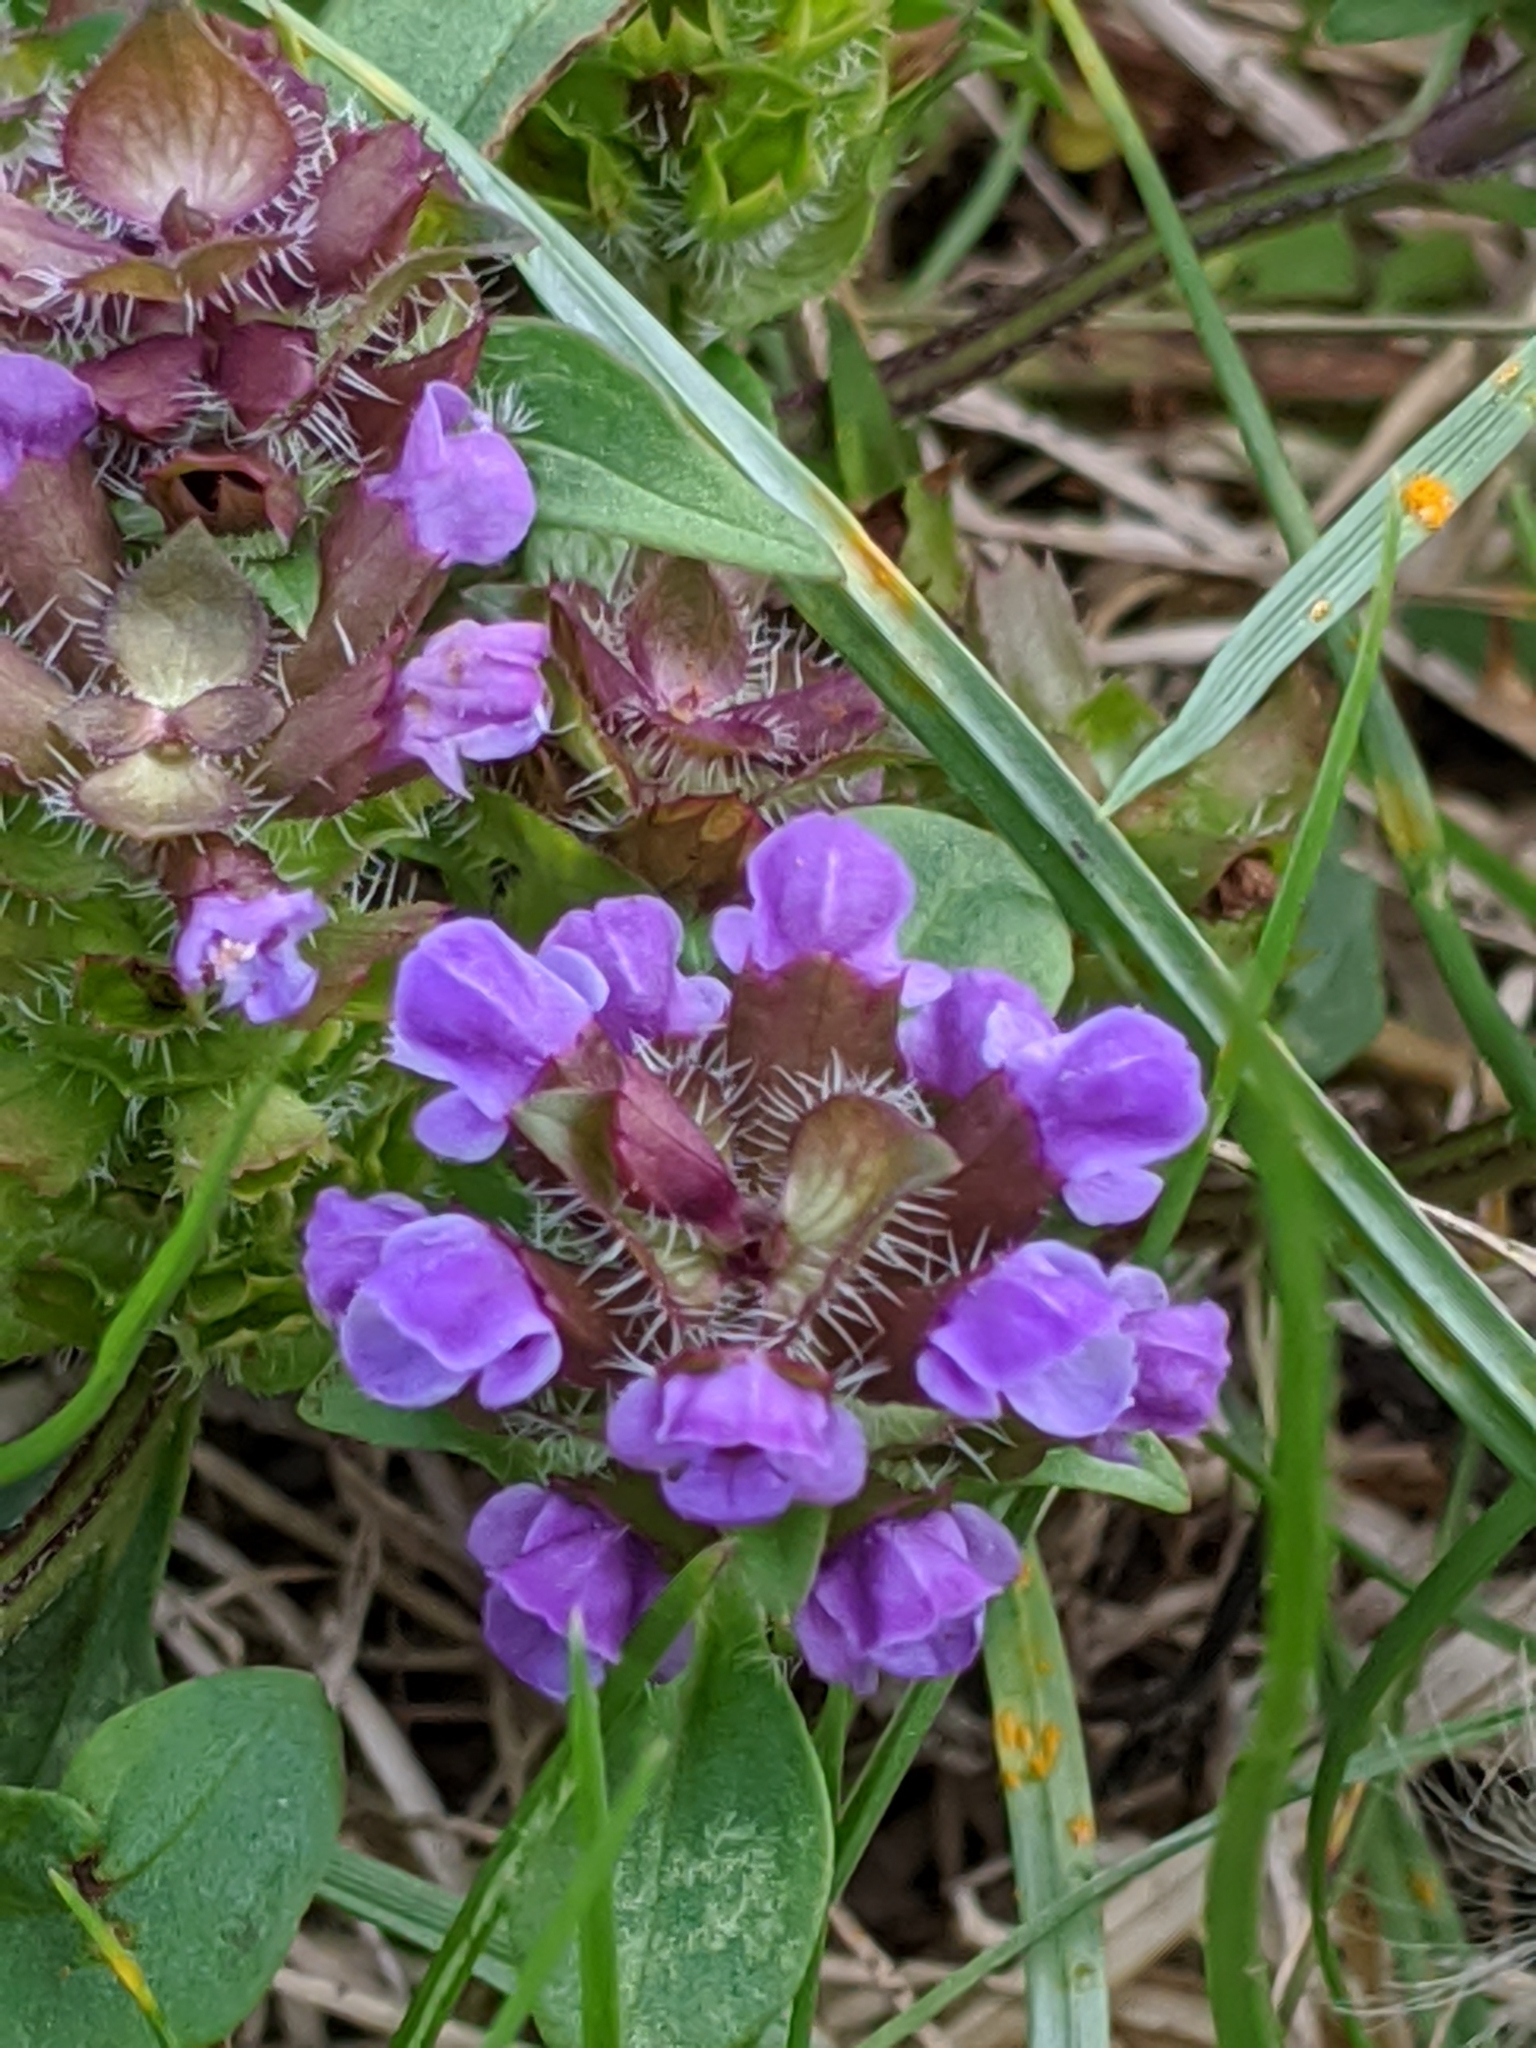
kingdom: Plantae
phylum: Tracheophyta
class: Magnoliopsida
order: Lamiales
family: Lamiaceae
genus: Prunella
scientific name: Prunella vulgaris
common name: Heal-all
